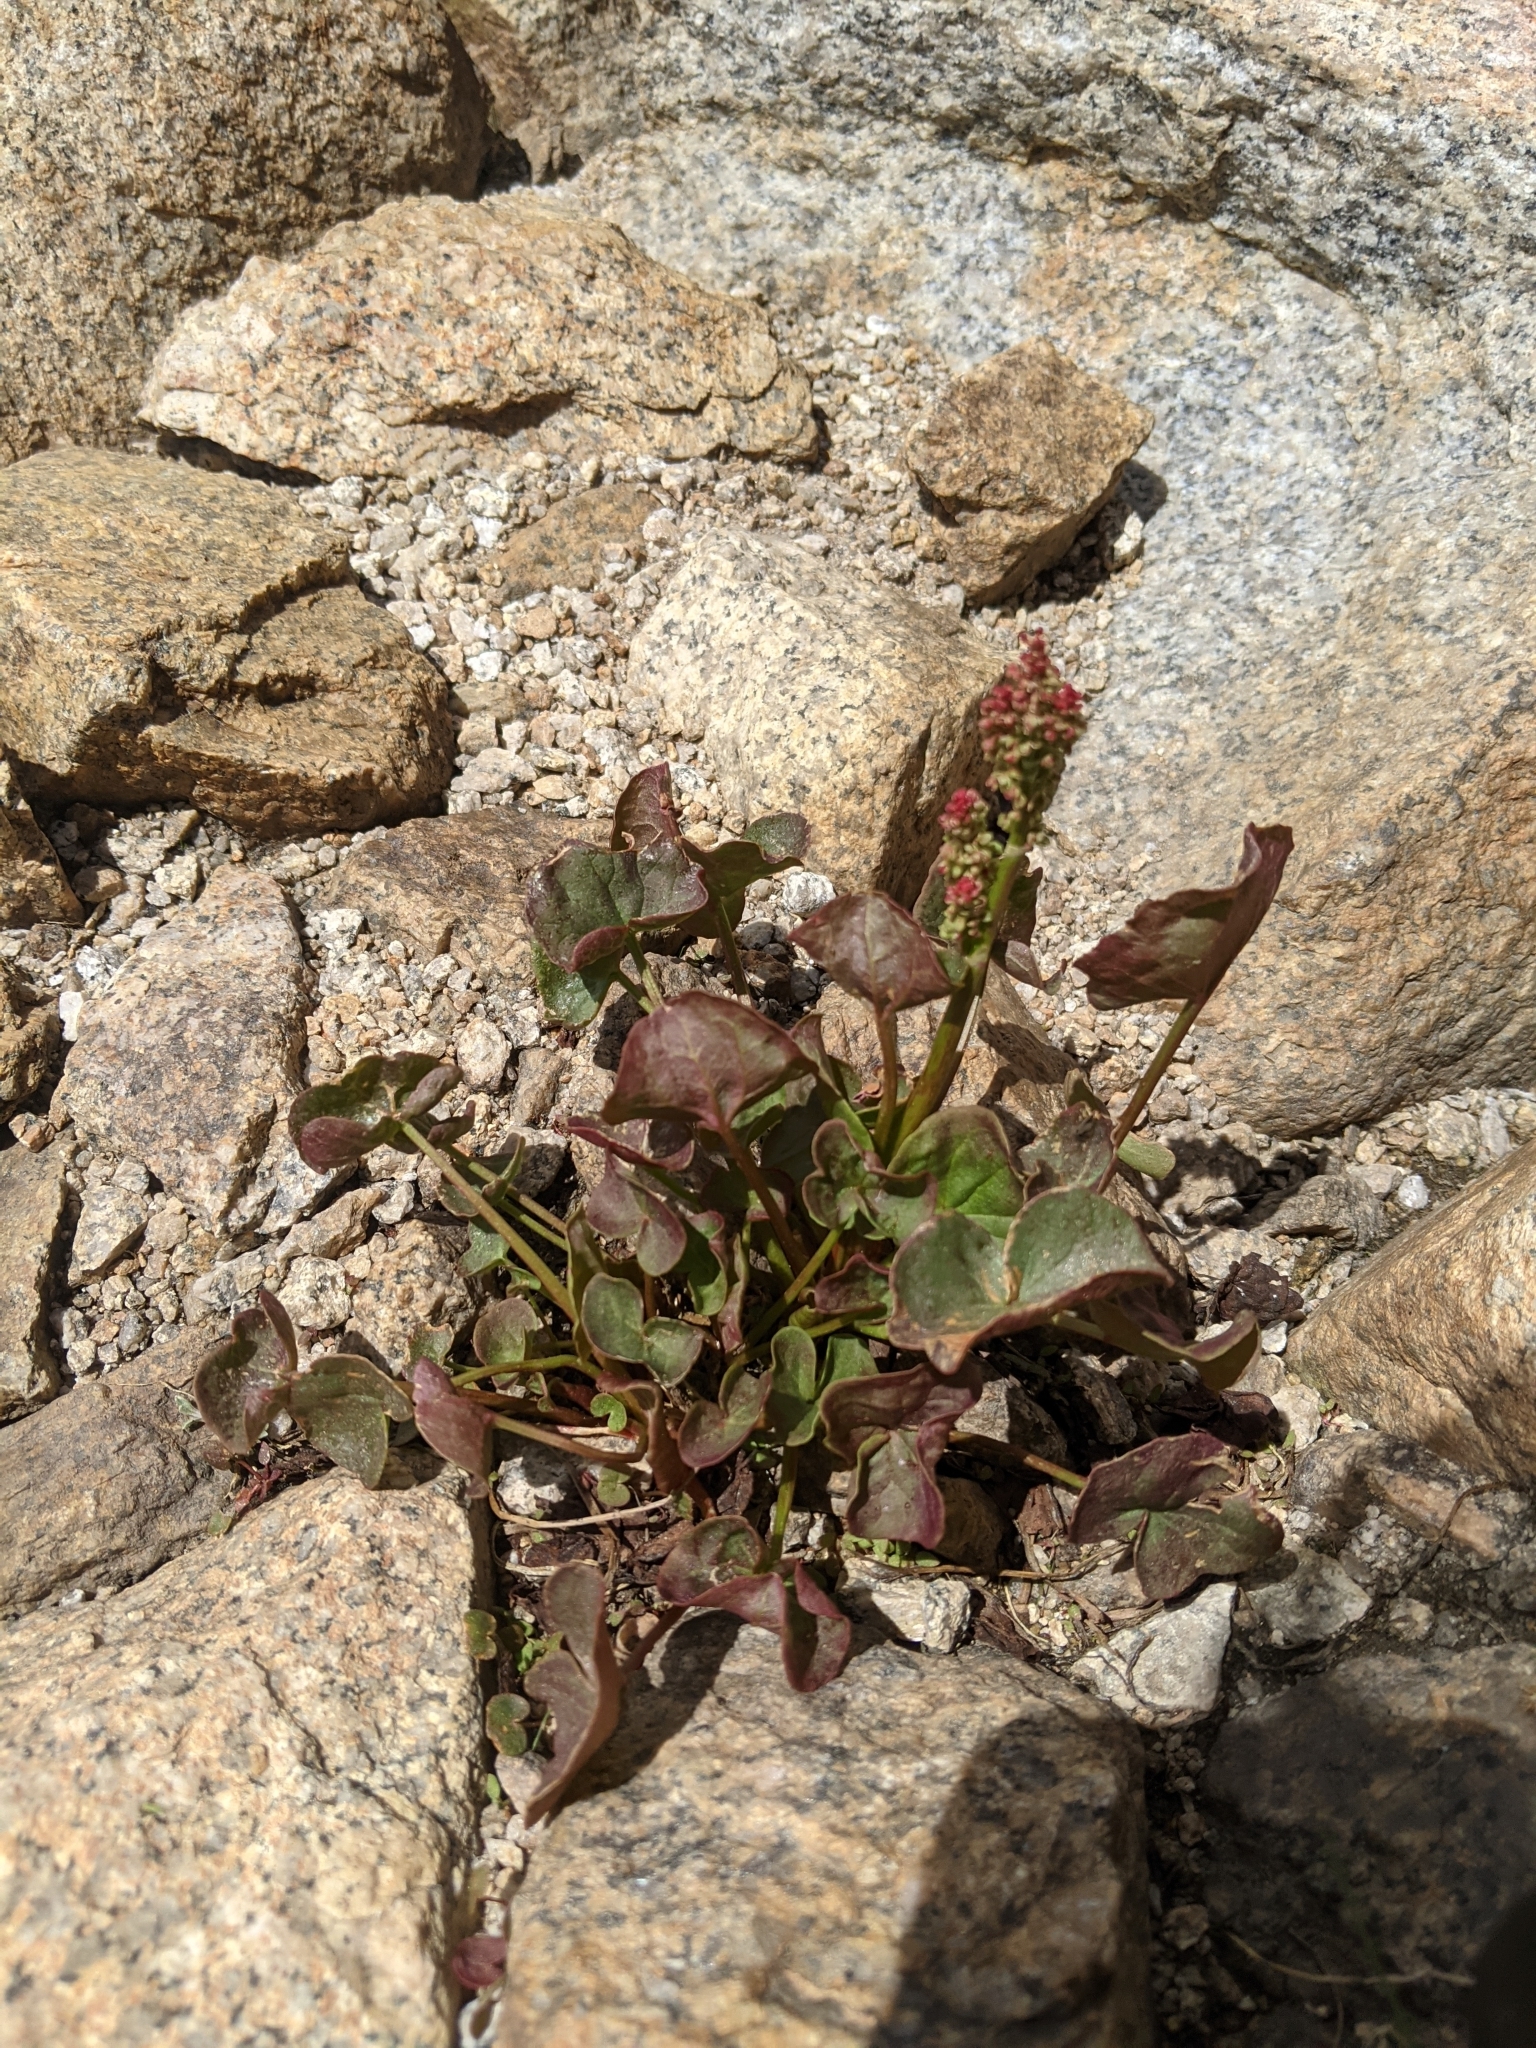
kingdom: Plantae
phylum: Tracheophyta
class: Magnoliopsida
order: Caryophyllales
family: Polygonaceae
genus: Oxyria
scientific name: Oxyria digyna
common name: Alpine mountain-sorrel
